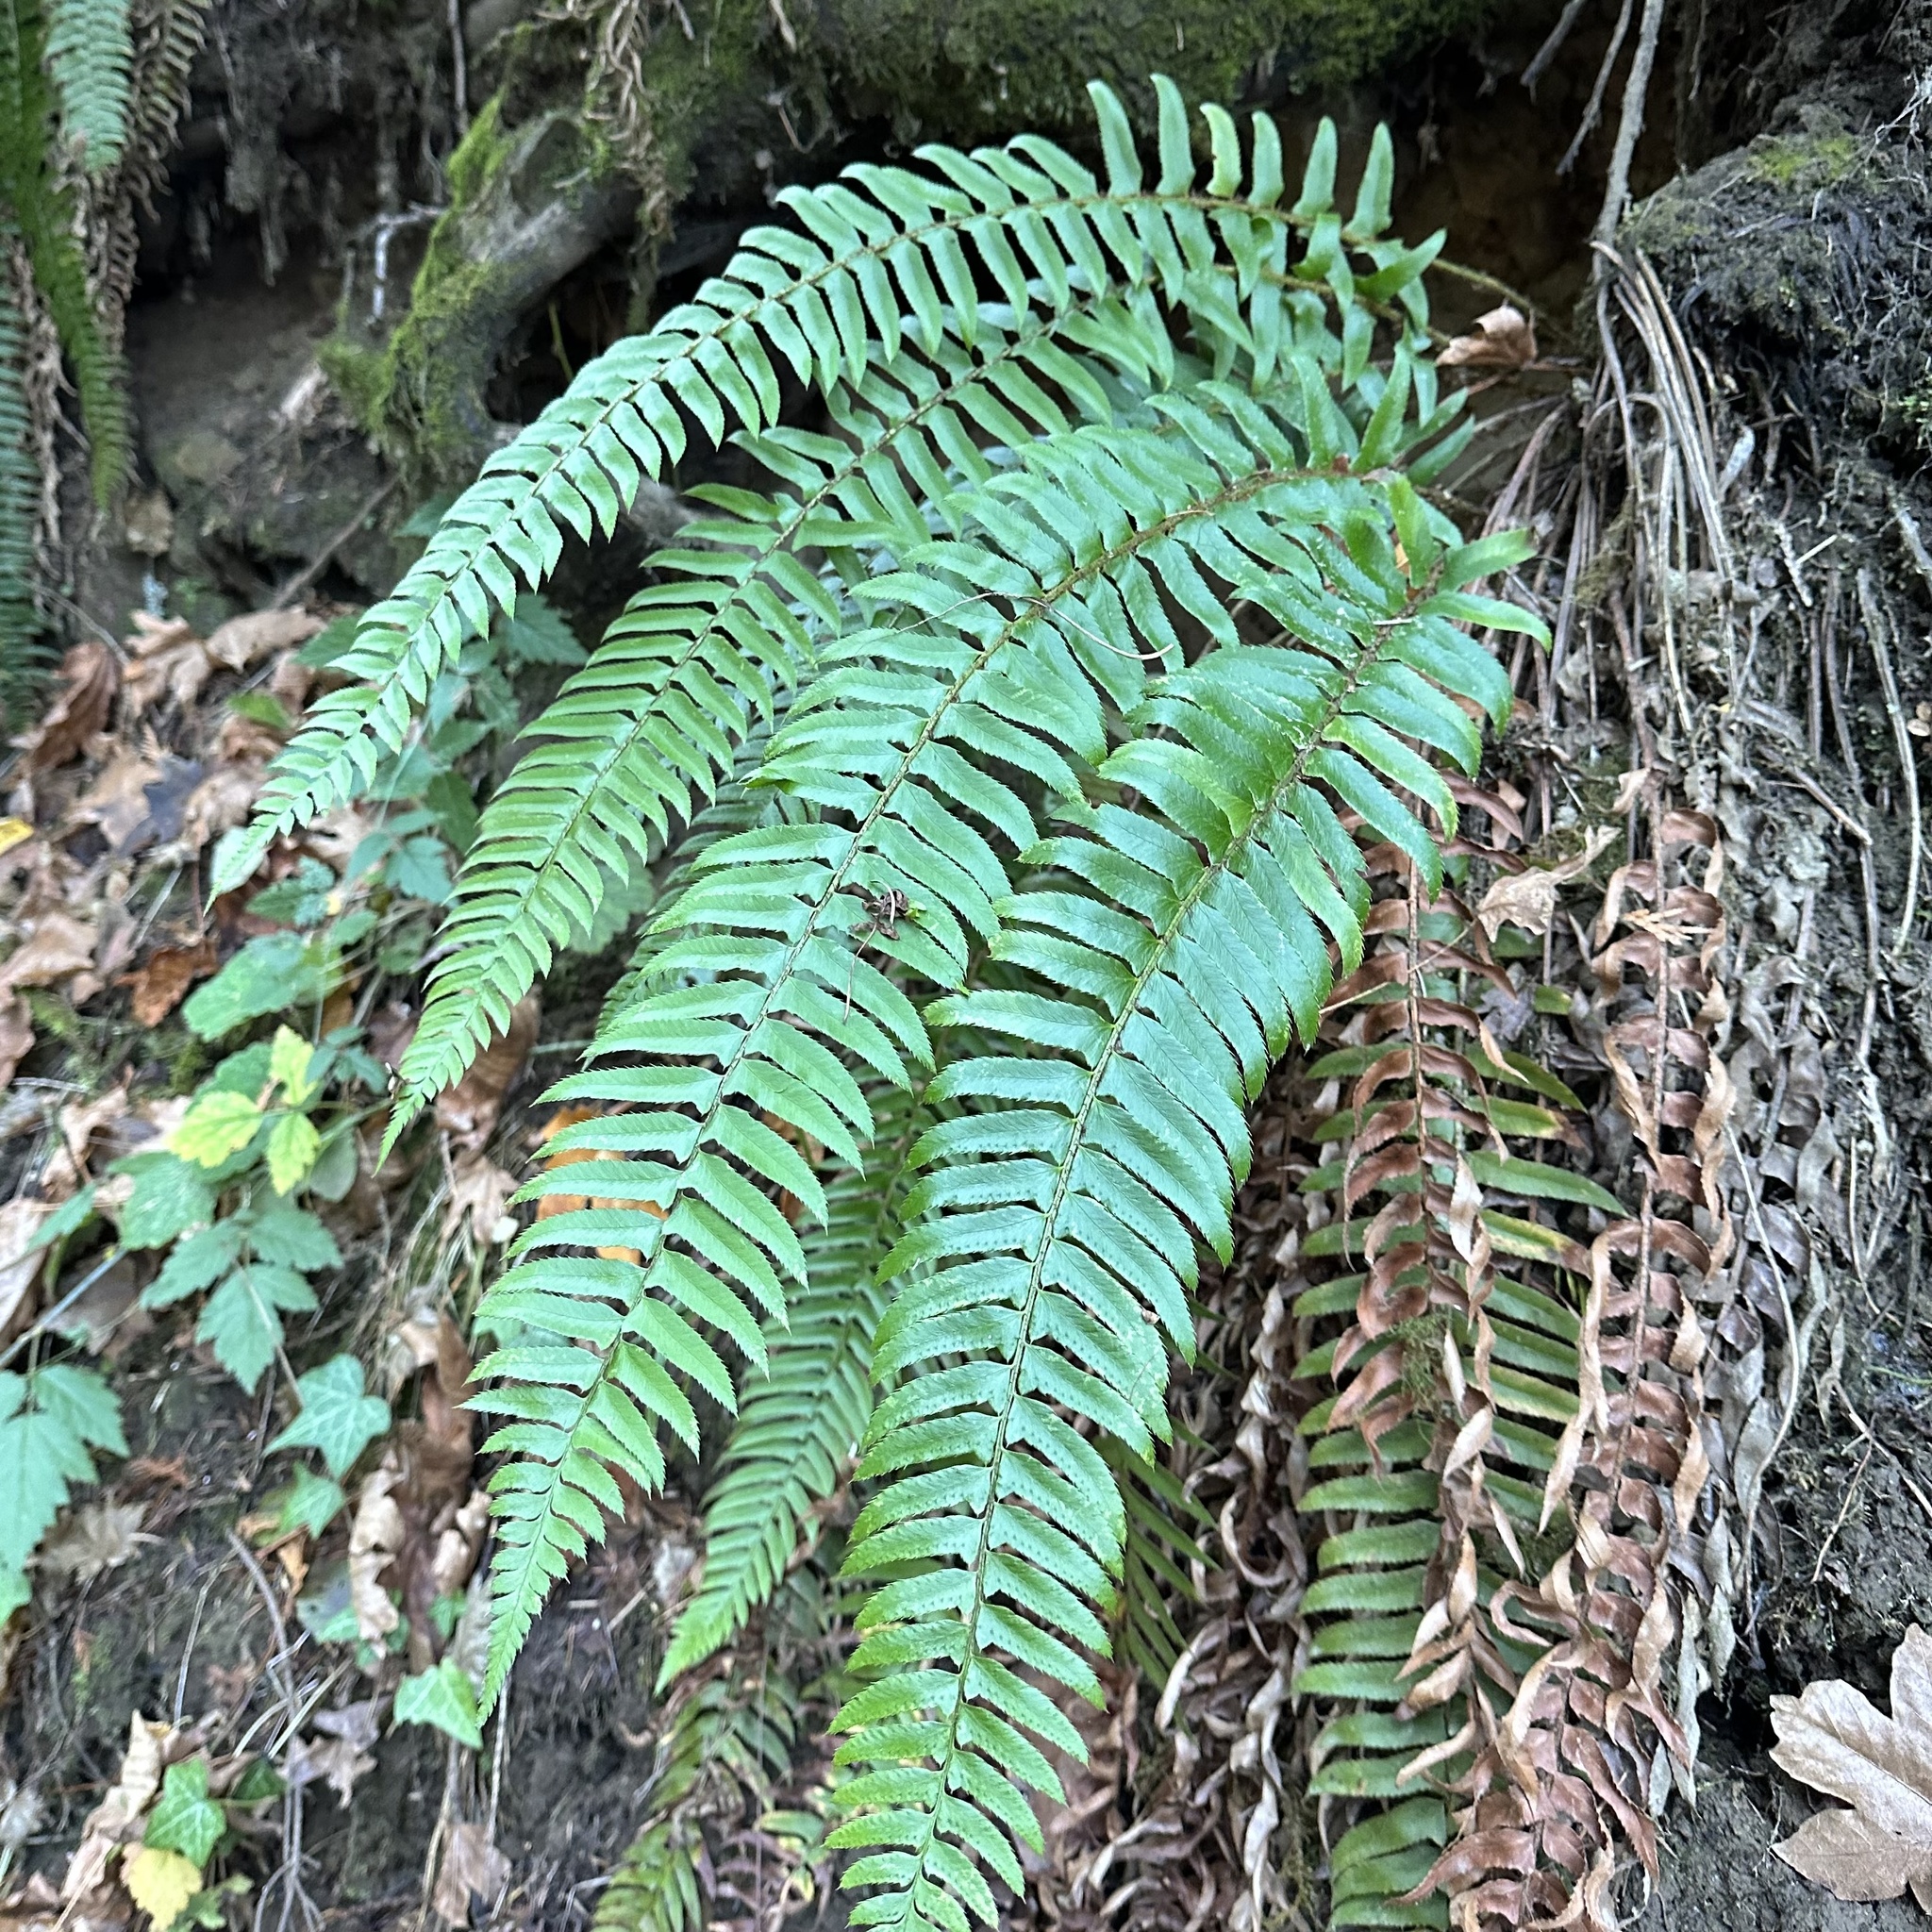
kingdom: Plantae
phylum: Tracheophyta
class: Polypodiopsida
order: Polypodiales
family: Dryopteridaceae
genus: Polystichum
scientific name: Polystichum munitum
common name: Western sword-fern
